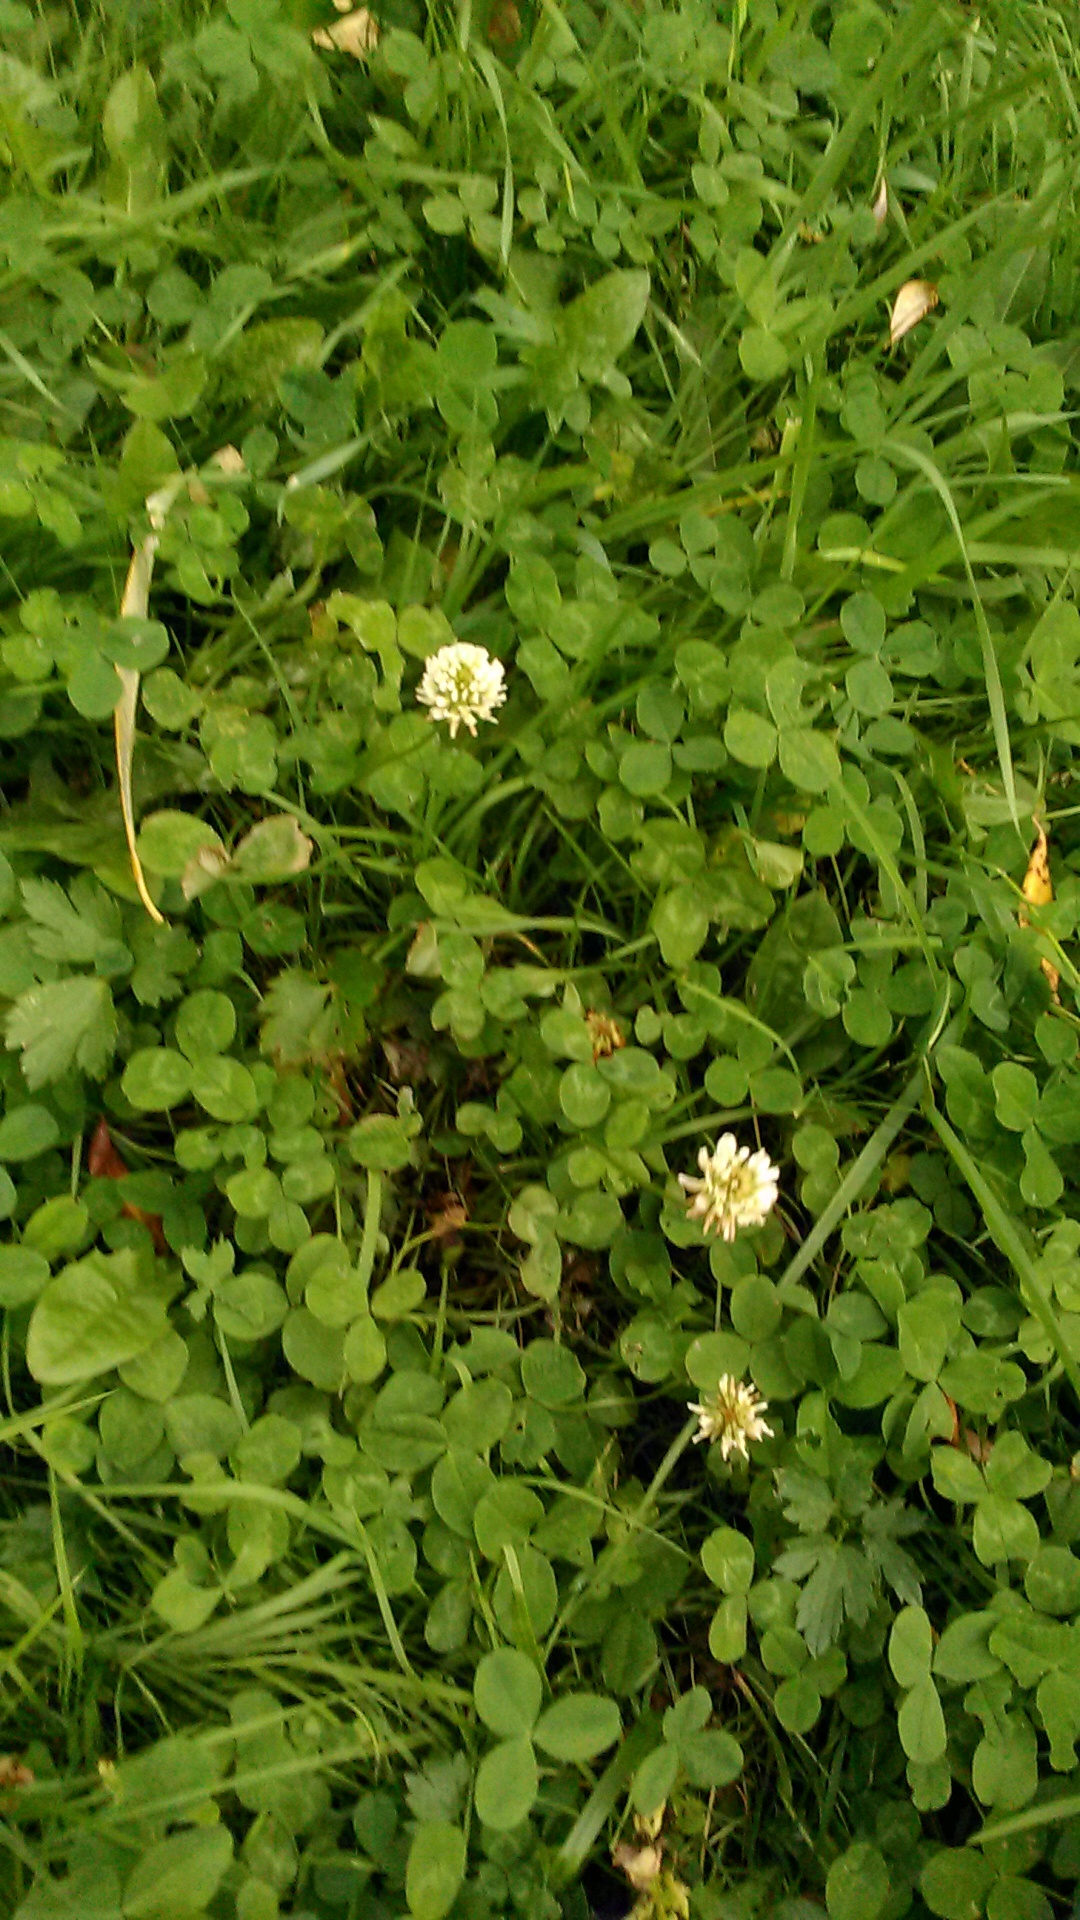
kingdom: Plantae
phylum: Tracheophyta
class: Magnoliopsida
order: Fabales
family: Fabaceae
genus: Trifolium
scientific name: Trifolium repens
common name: White clover
